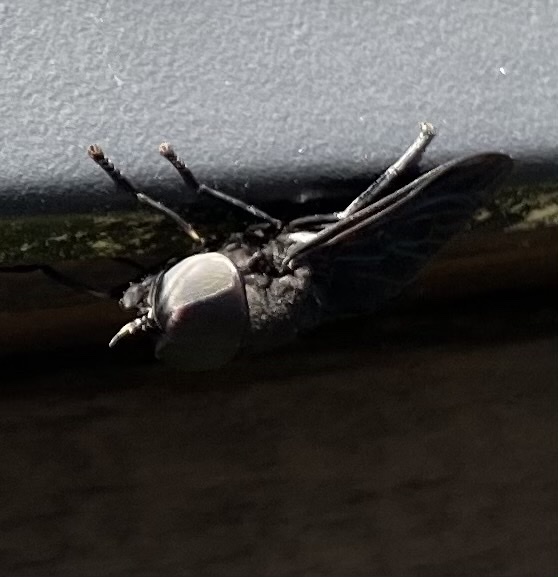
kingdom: Animalia
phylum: Arthropoda
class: Insecta
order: Diptera
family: Tabanidae
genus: Tabanus
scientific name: Tabanus atratus
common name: Black horse fly
